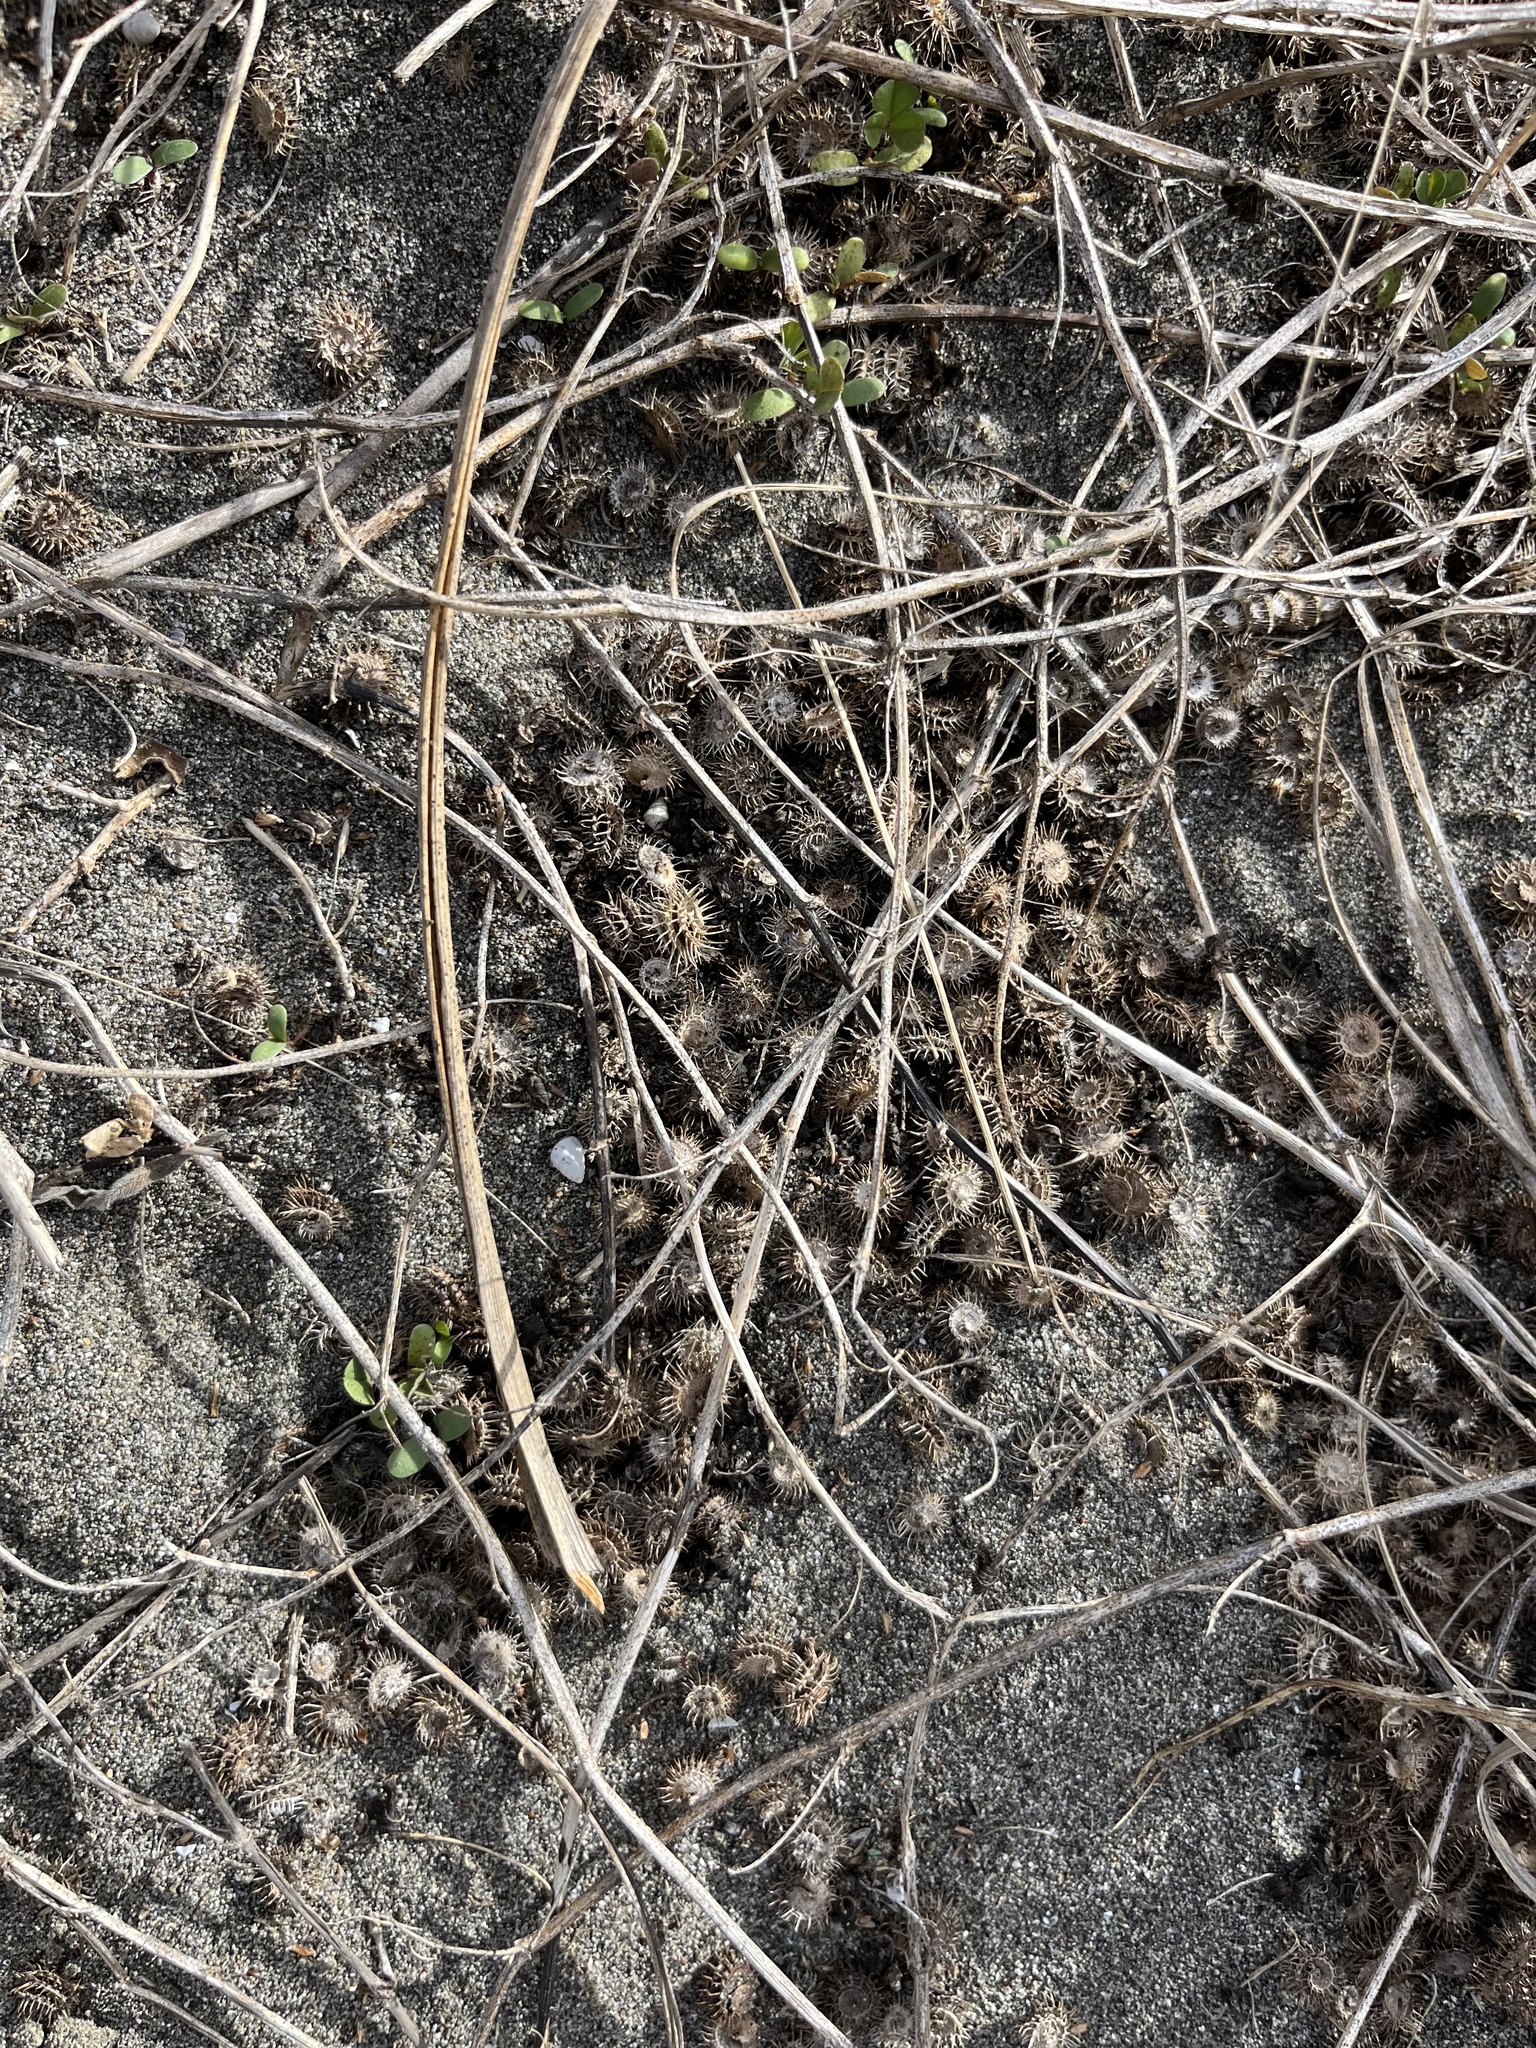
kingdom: Plantae
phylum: Tracheophyta
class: Magnoliopsida
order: Fabales
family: Fabaceae
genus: Medicago
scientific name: Medicago polymorpha
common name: Burclover
